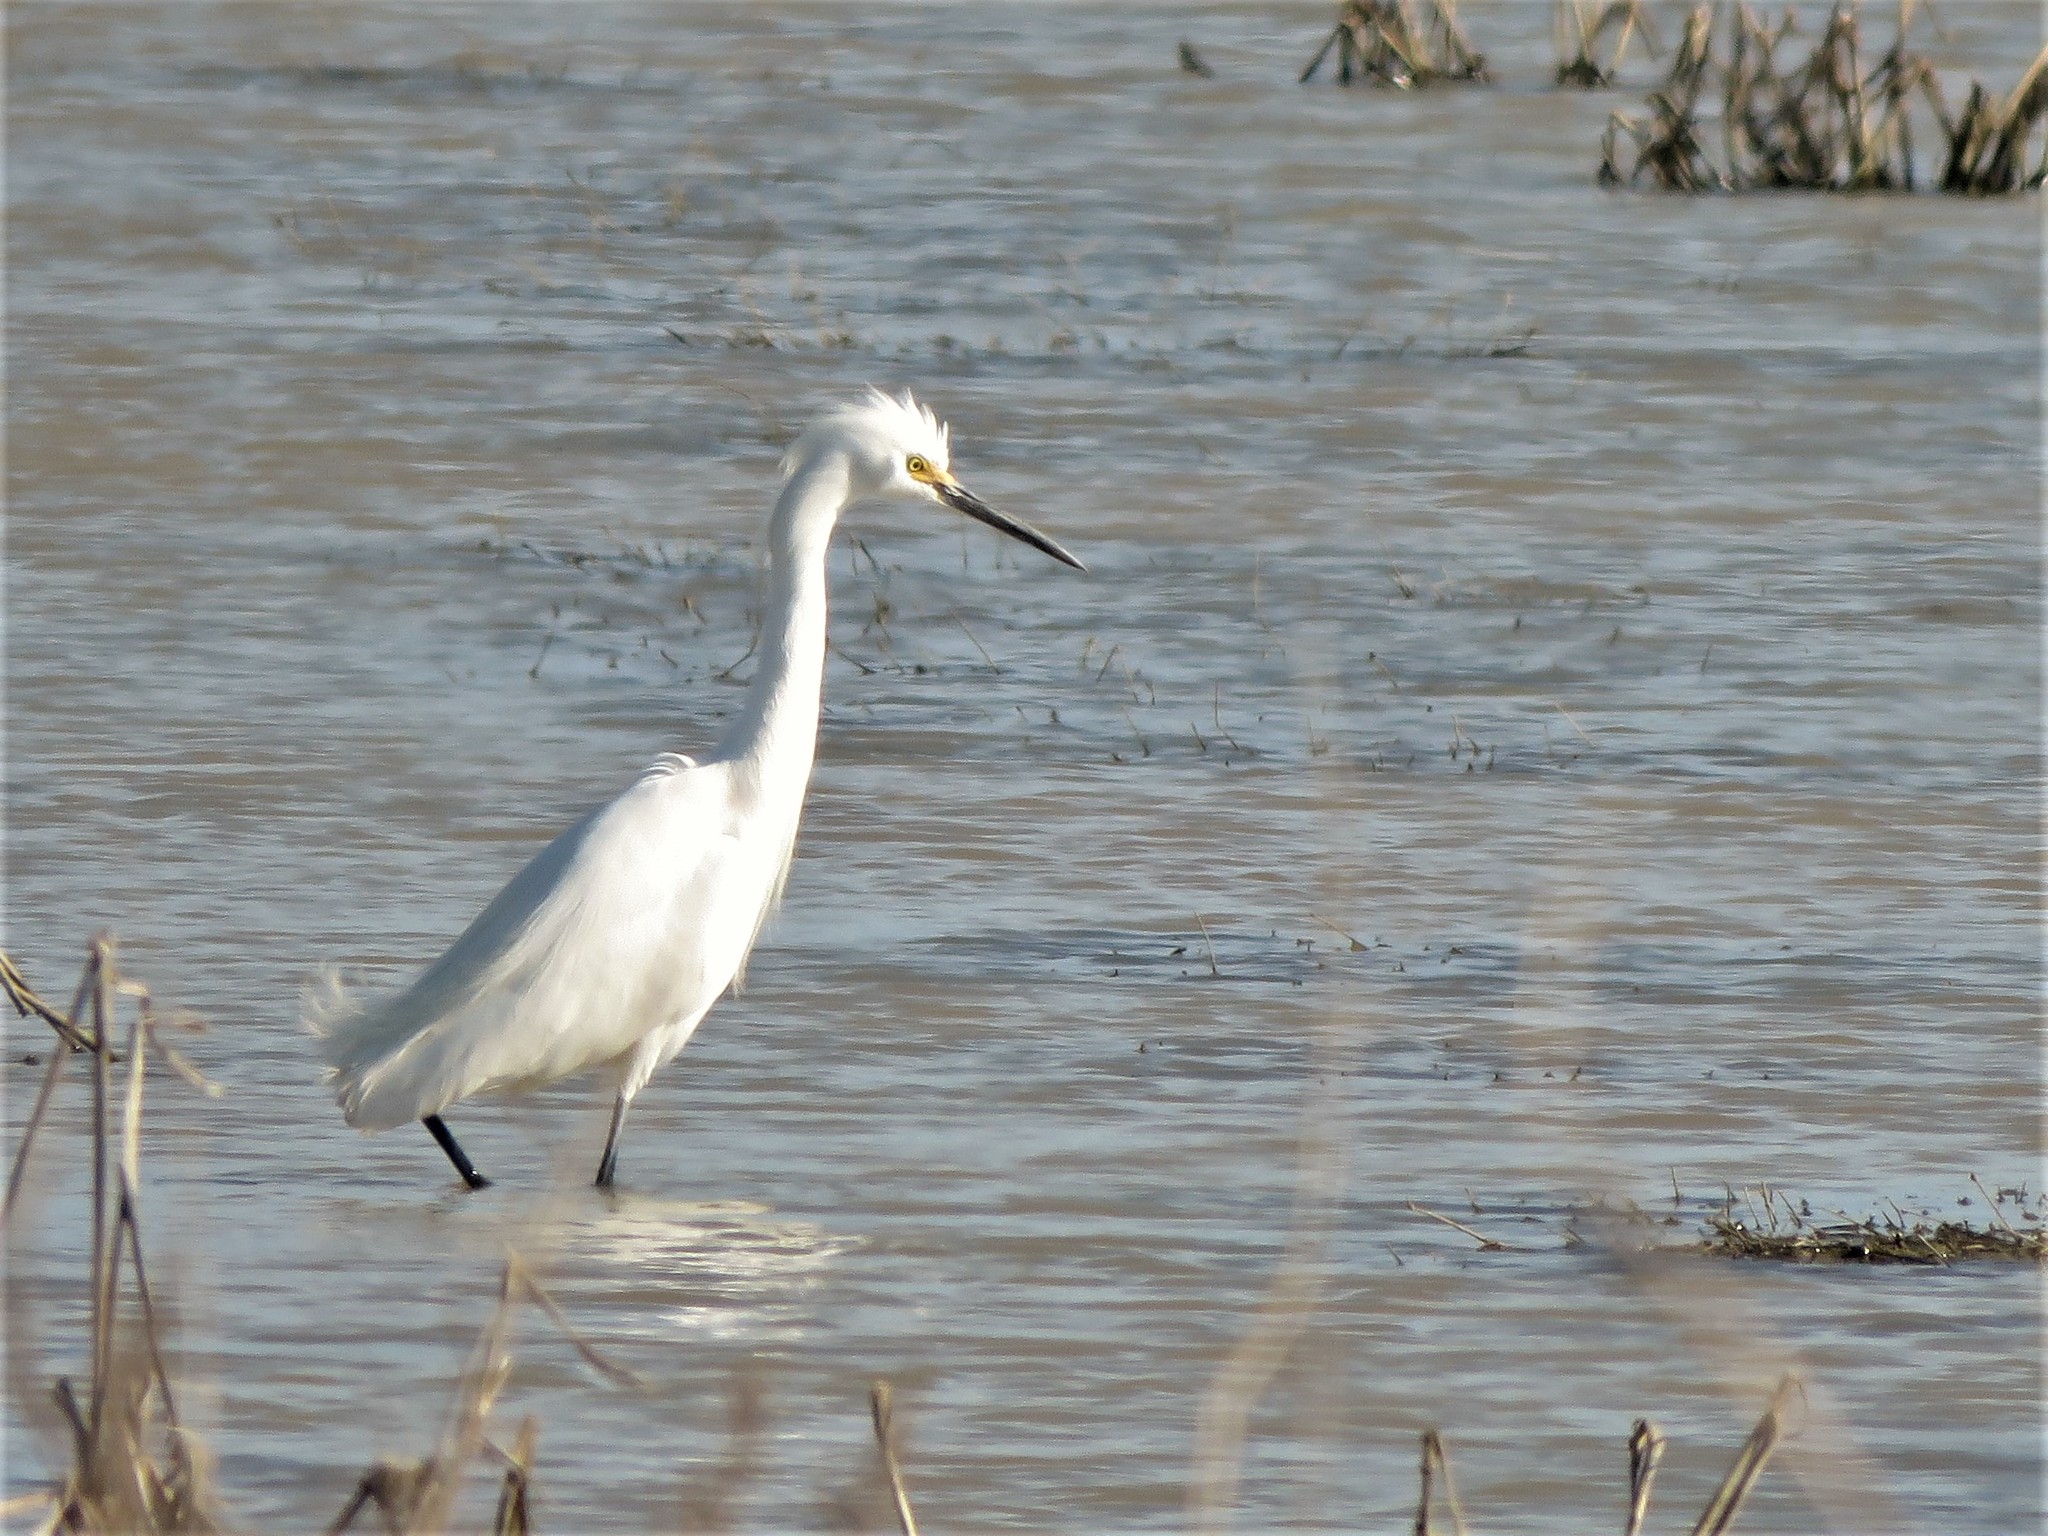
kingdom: Animalia
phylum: Chordata
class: Aves
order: Pelecaniformes
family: Ardeidae
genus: Egretta
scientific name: Egretta thula
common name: Snowy egret
